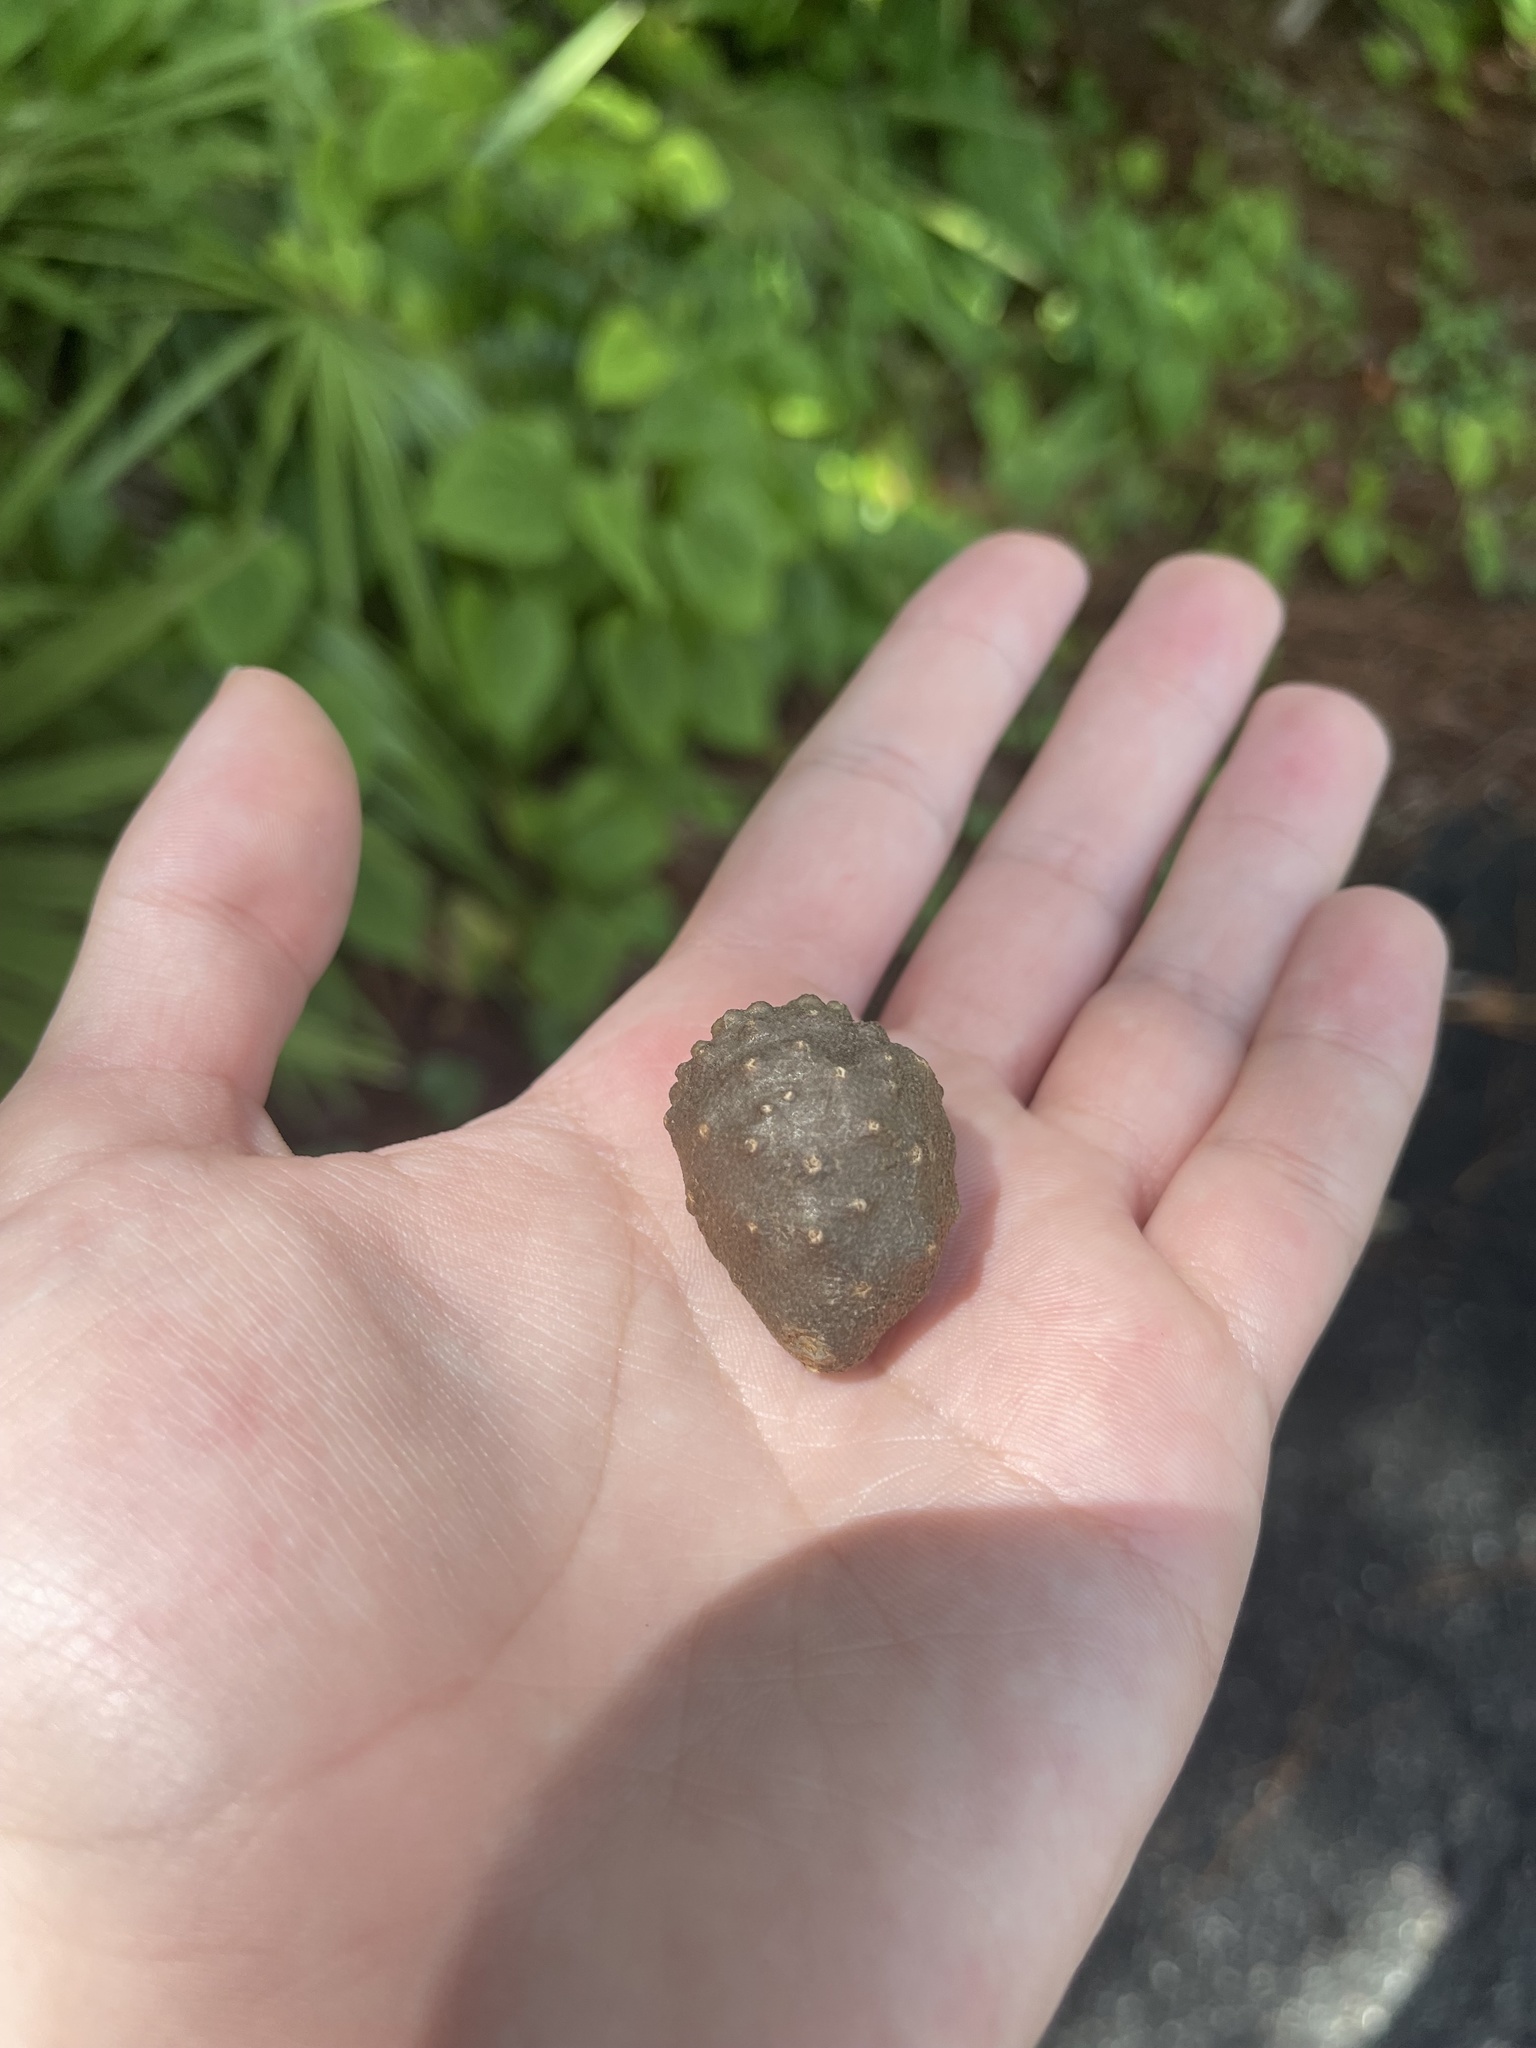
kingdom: Plantae
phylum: Tracheophyta
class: Liliopsida
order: Dioscoreales
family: Dioscoreaceae
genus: Dioscorea
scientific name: Dioscorea bulbifera
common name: Air yam
